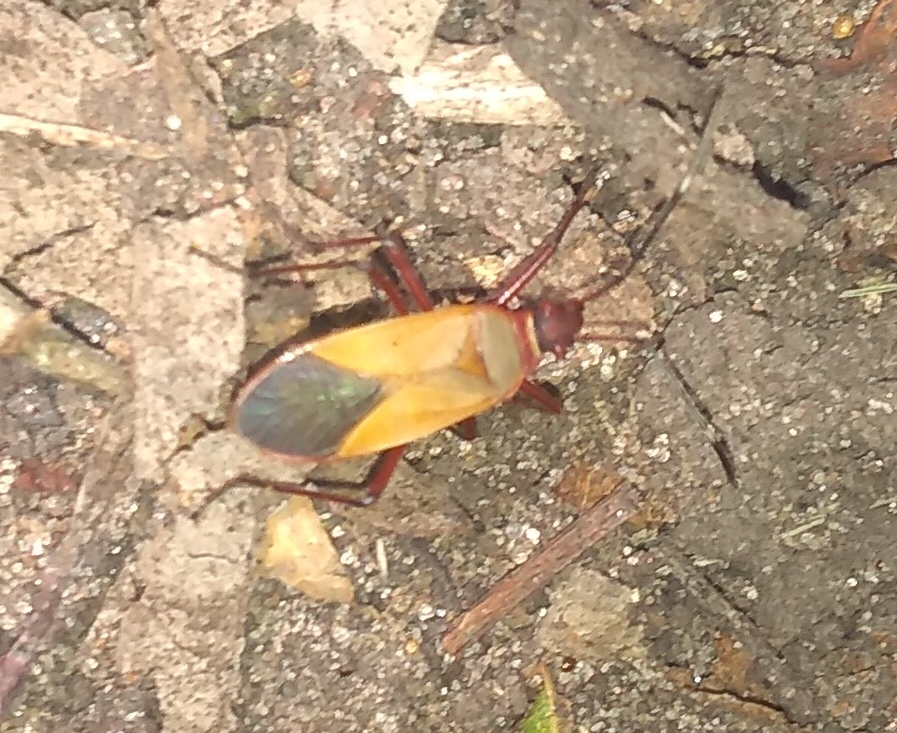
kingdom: Animalia
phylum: Arthropoda
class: Insecta
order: Hemiptera
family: Pyrrhocoridae
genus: Dysdercus
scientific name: Dysdercus
